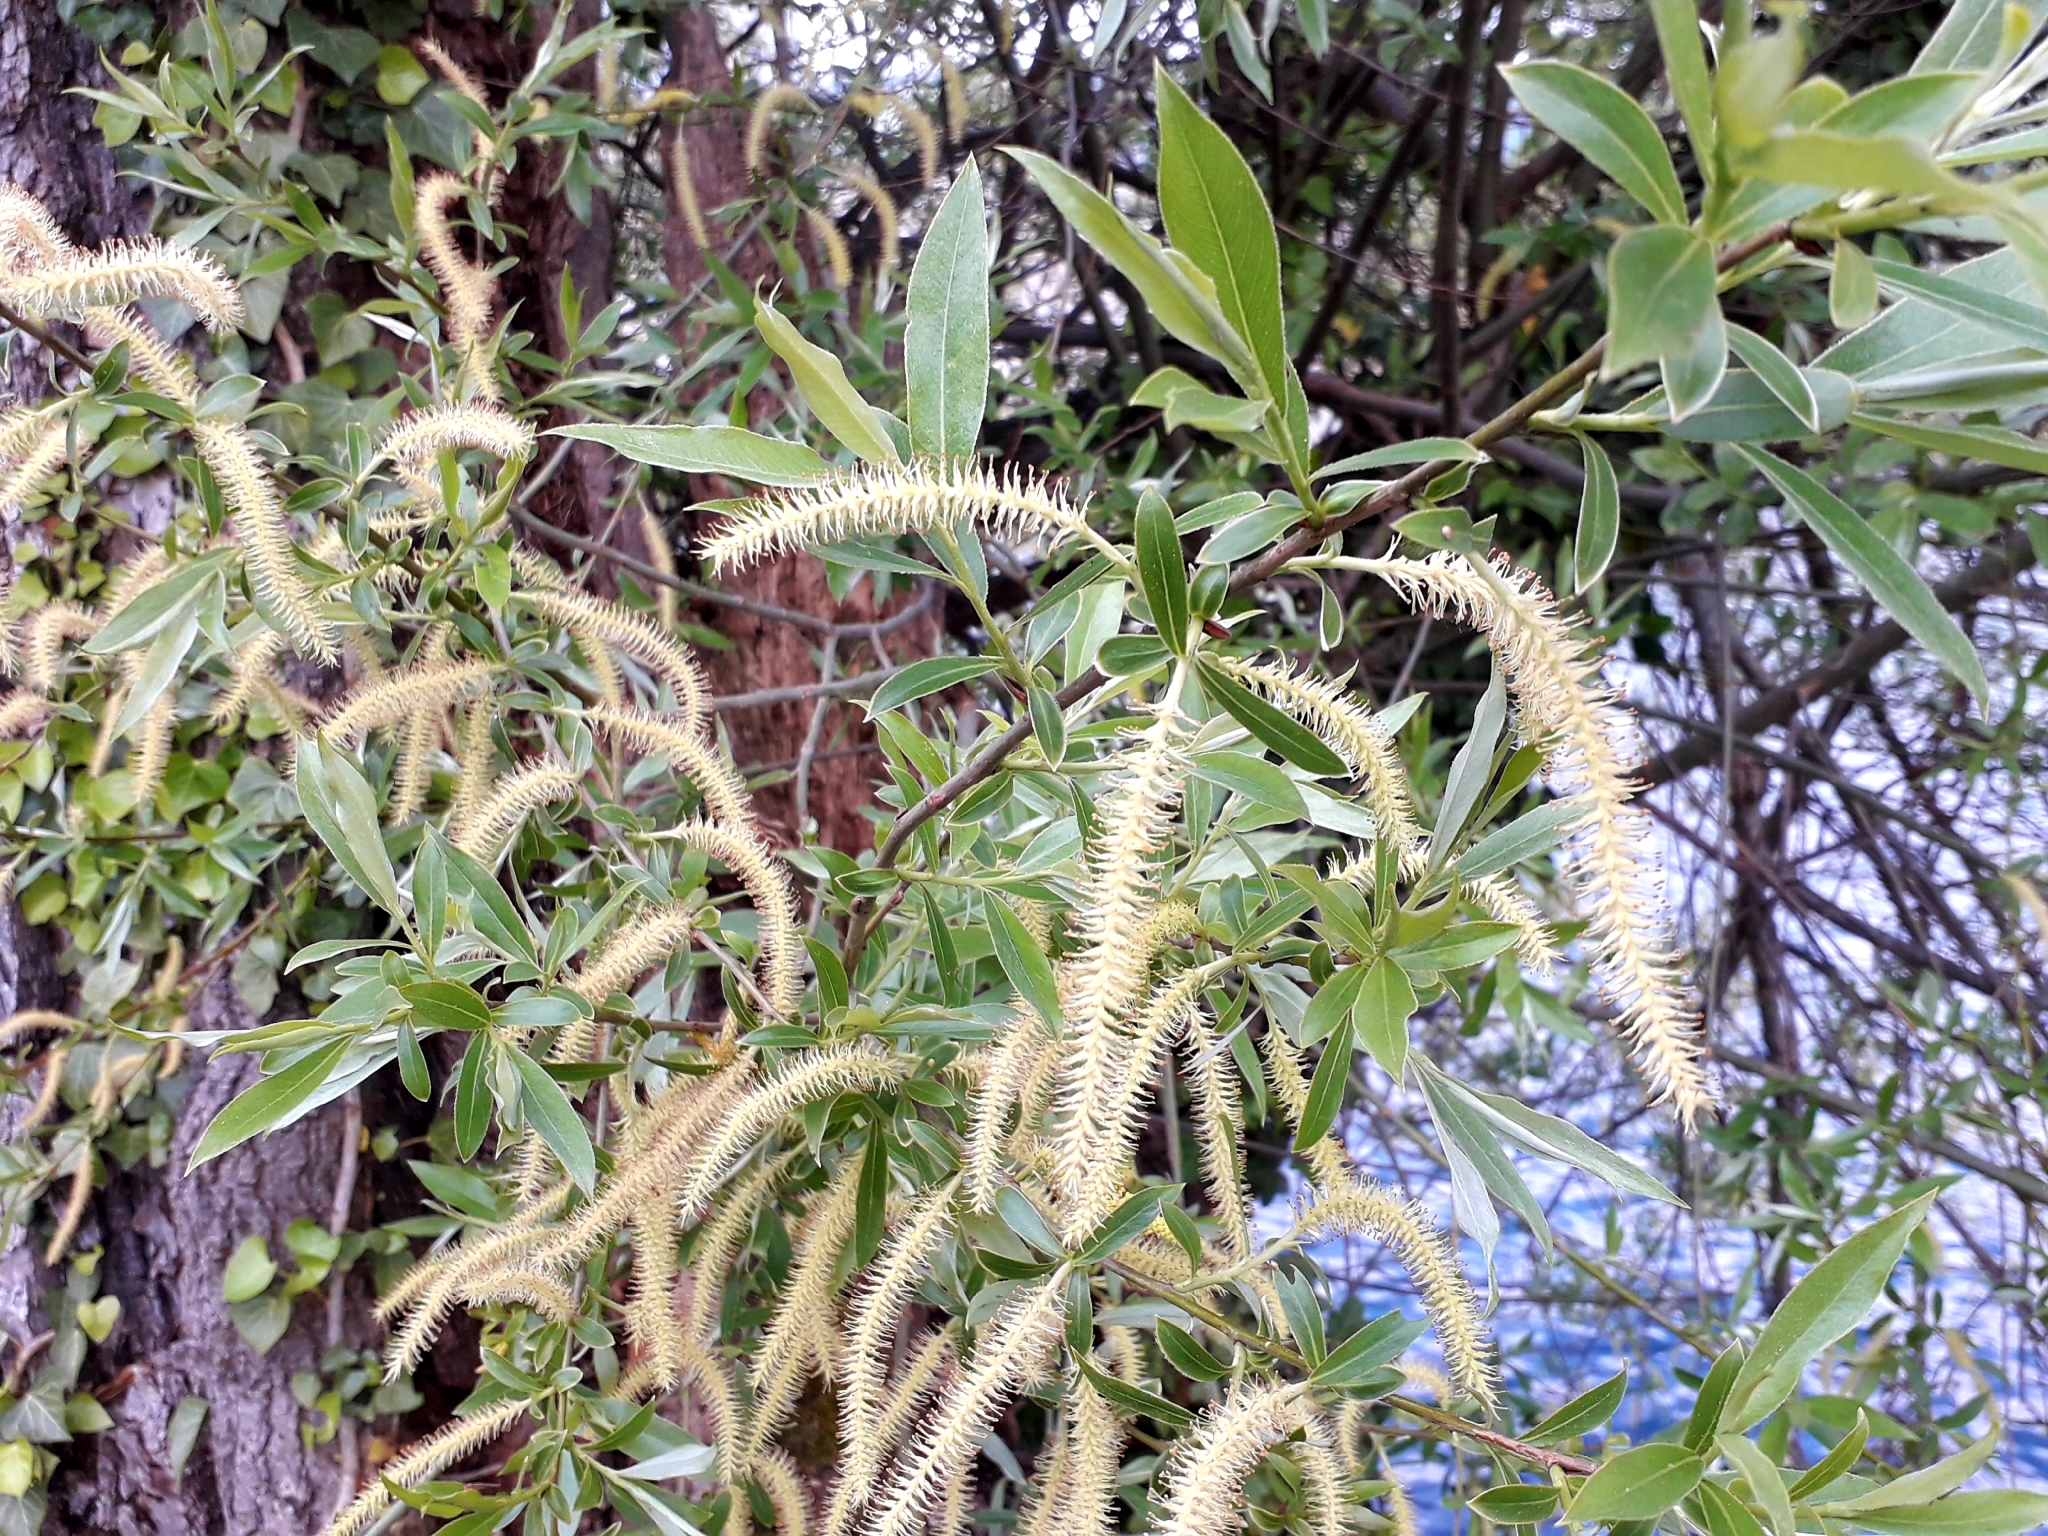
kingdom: Plantae
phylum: Tracheophyta
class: Magnoliopsida
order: Malpighiales
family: Salicaceae
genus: Salix
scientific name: Salix alba
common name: White willow
